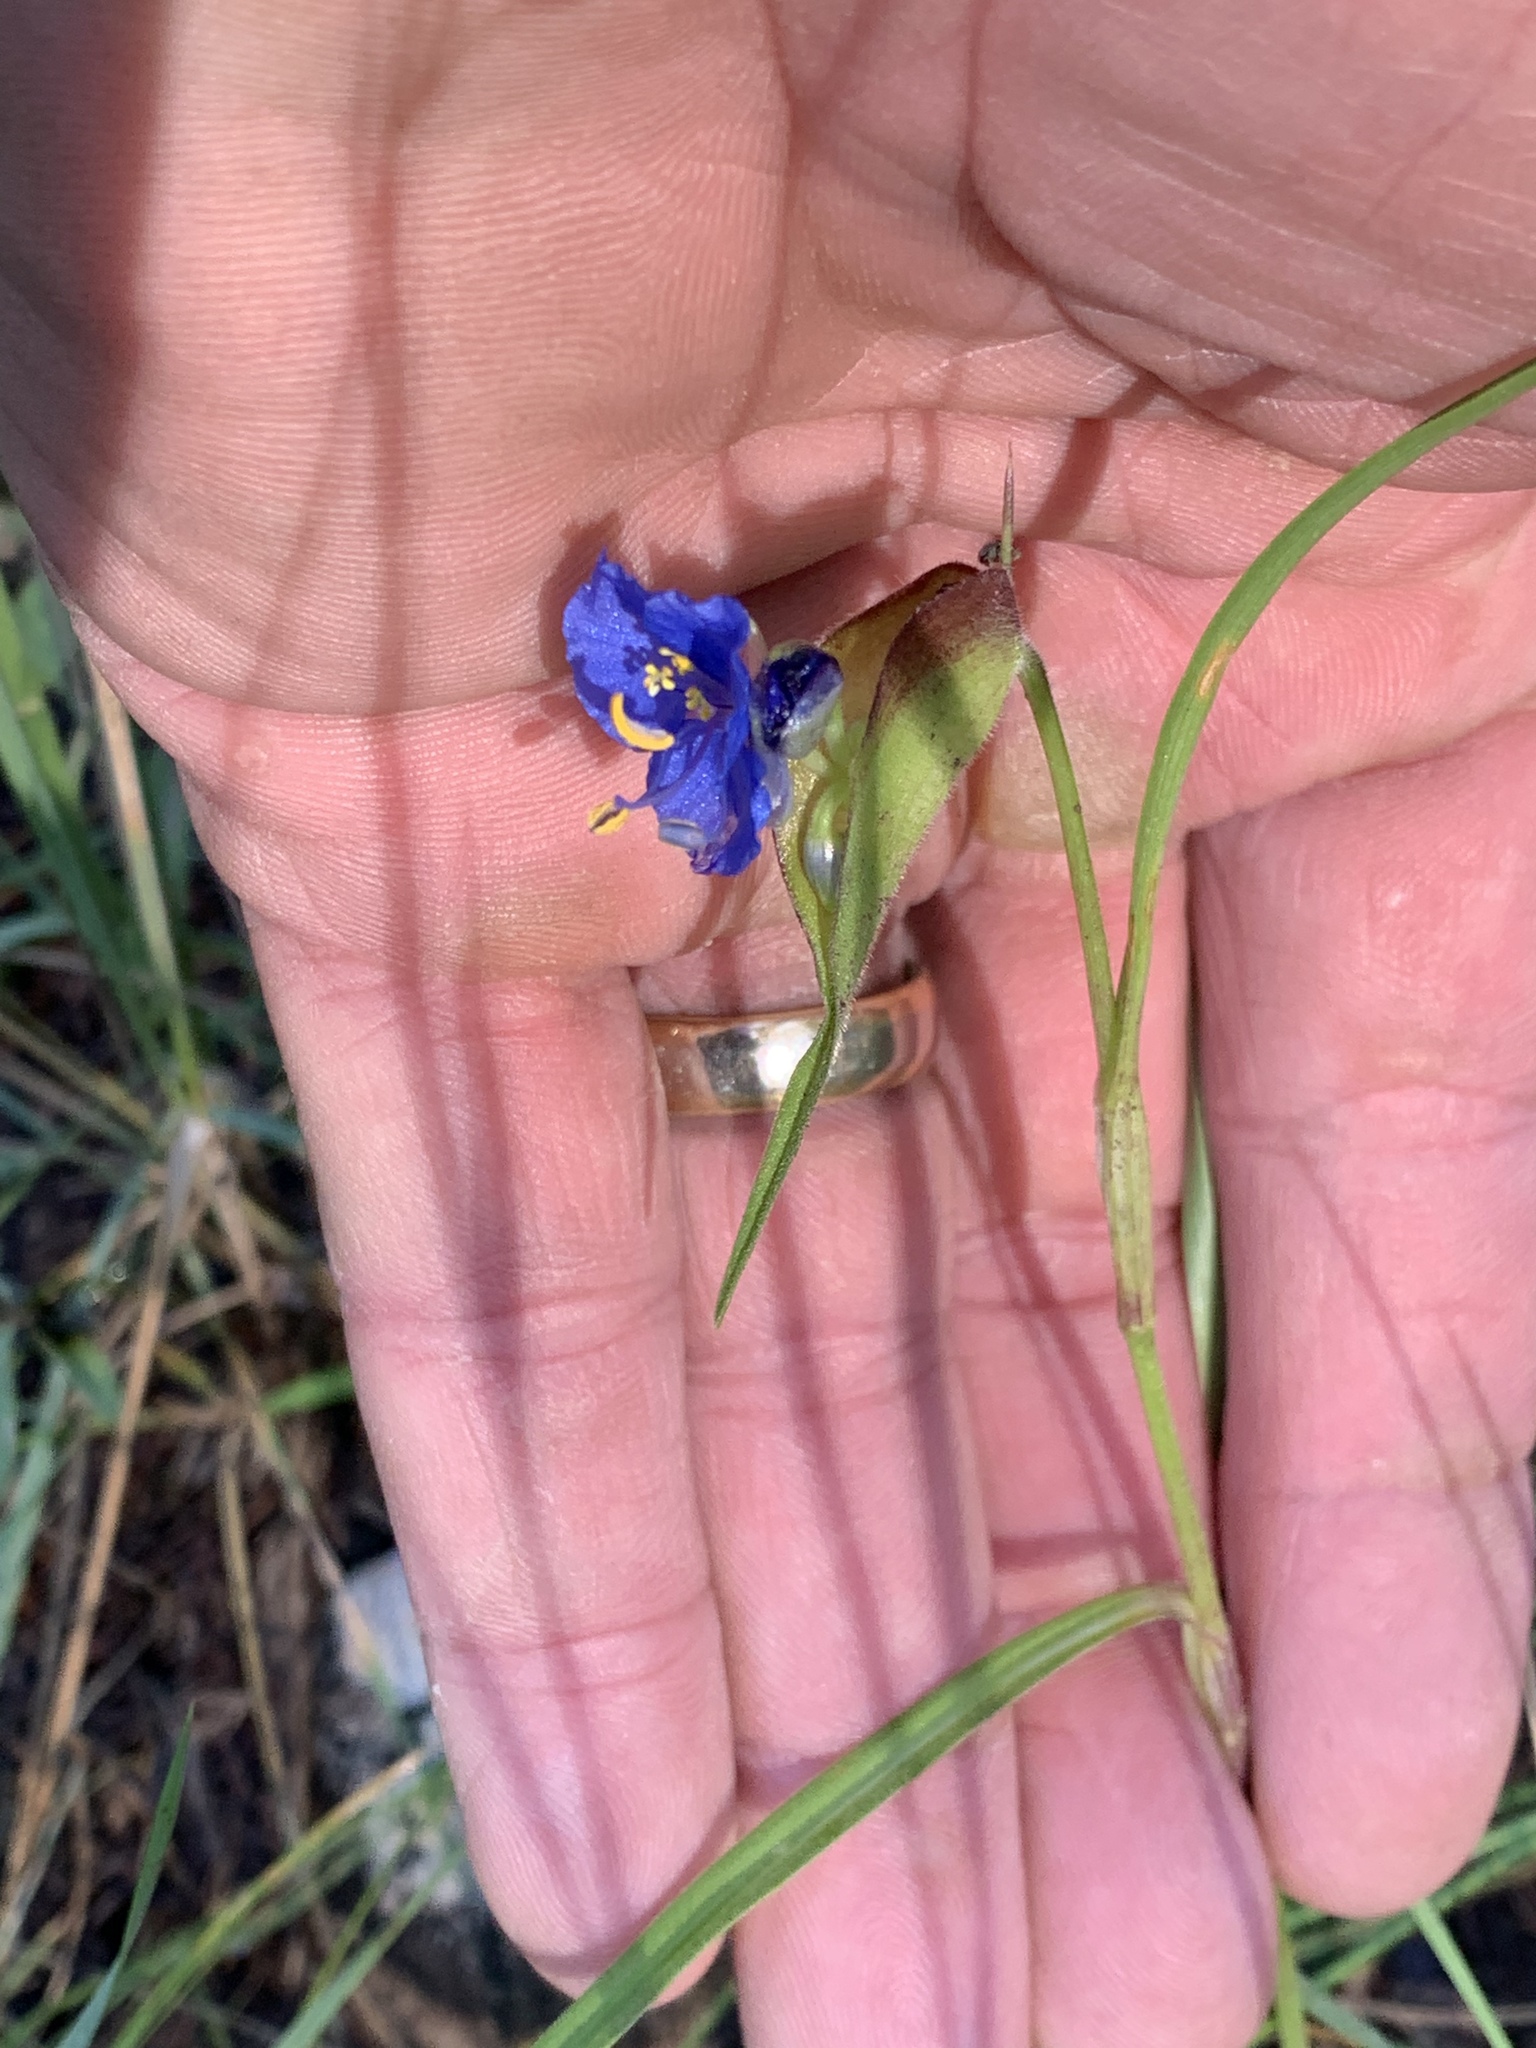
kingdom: Plantae
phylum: Tracheophyta
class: Liliopsida
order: Commelinales
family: Commelinaceae
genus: Commelina
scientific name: Commelina dianthifolia
